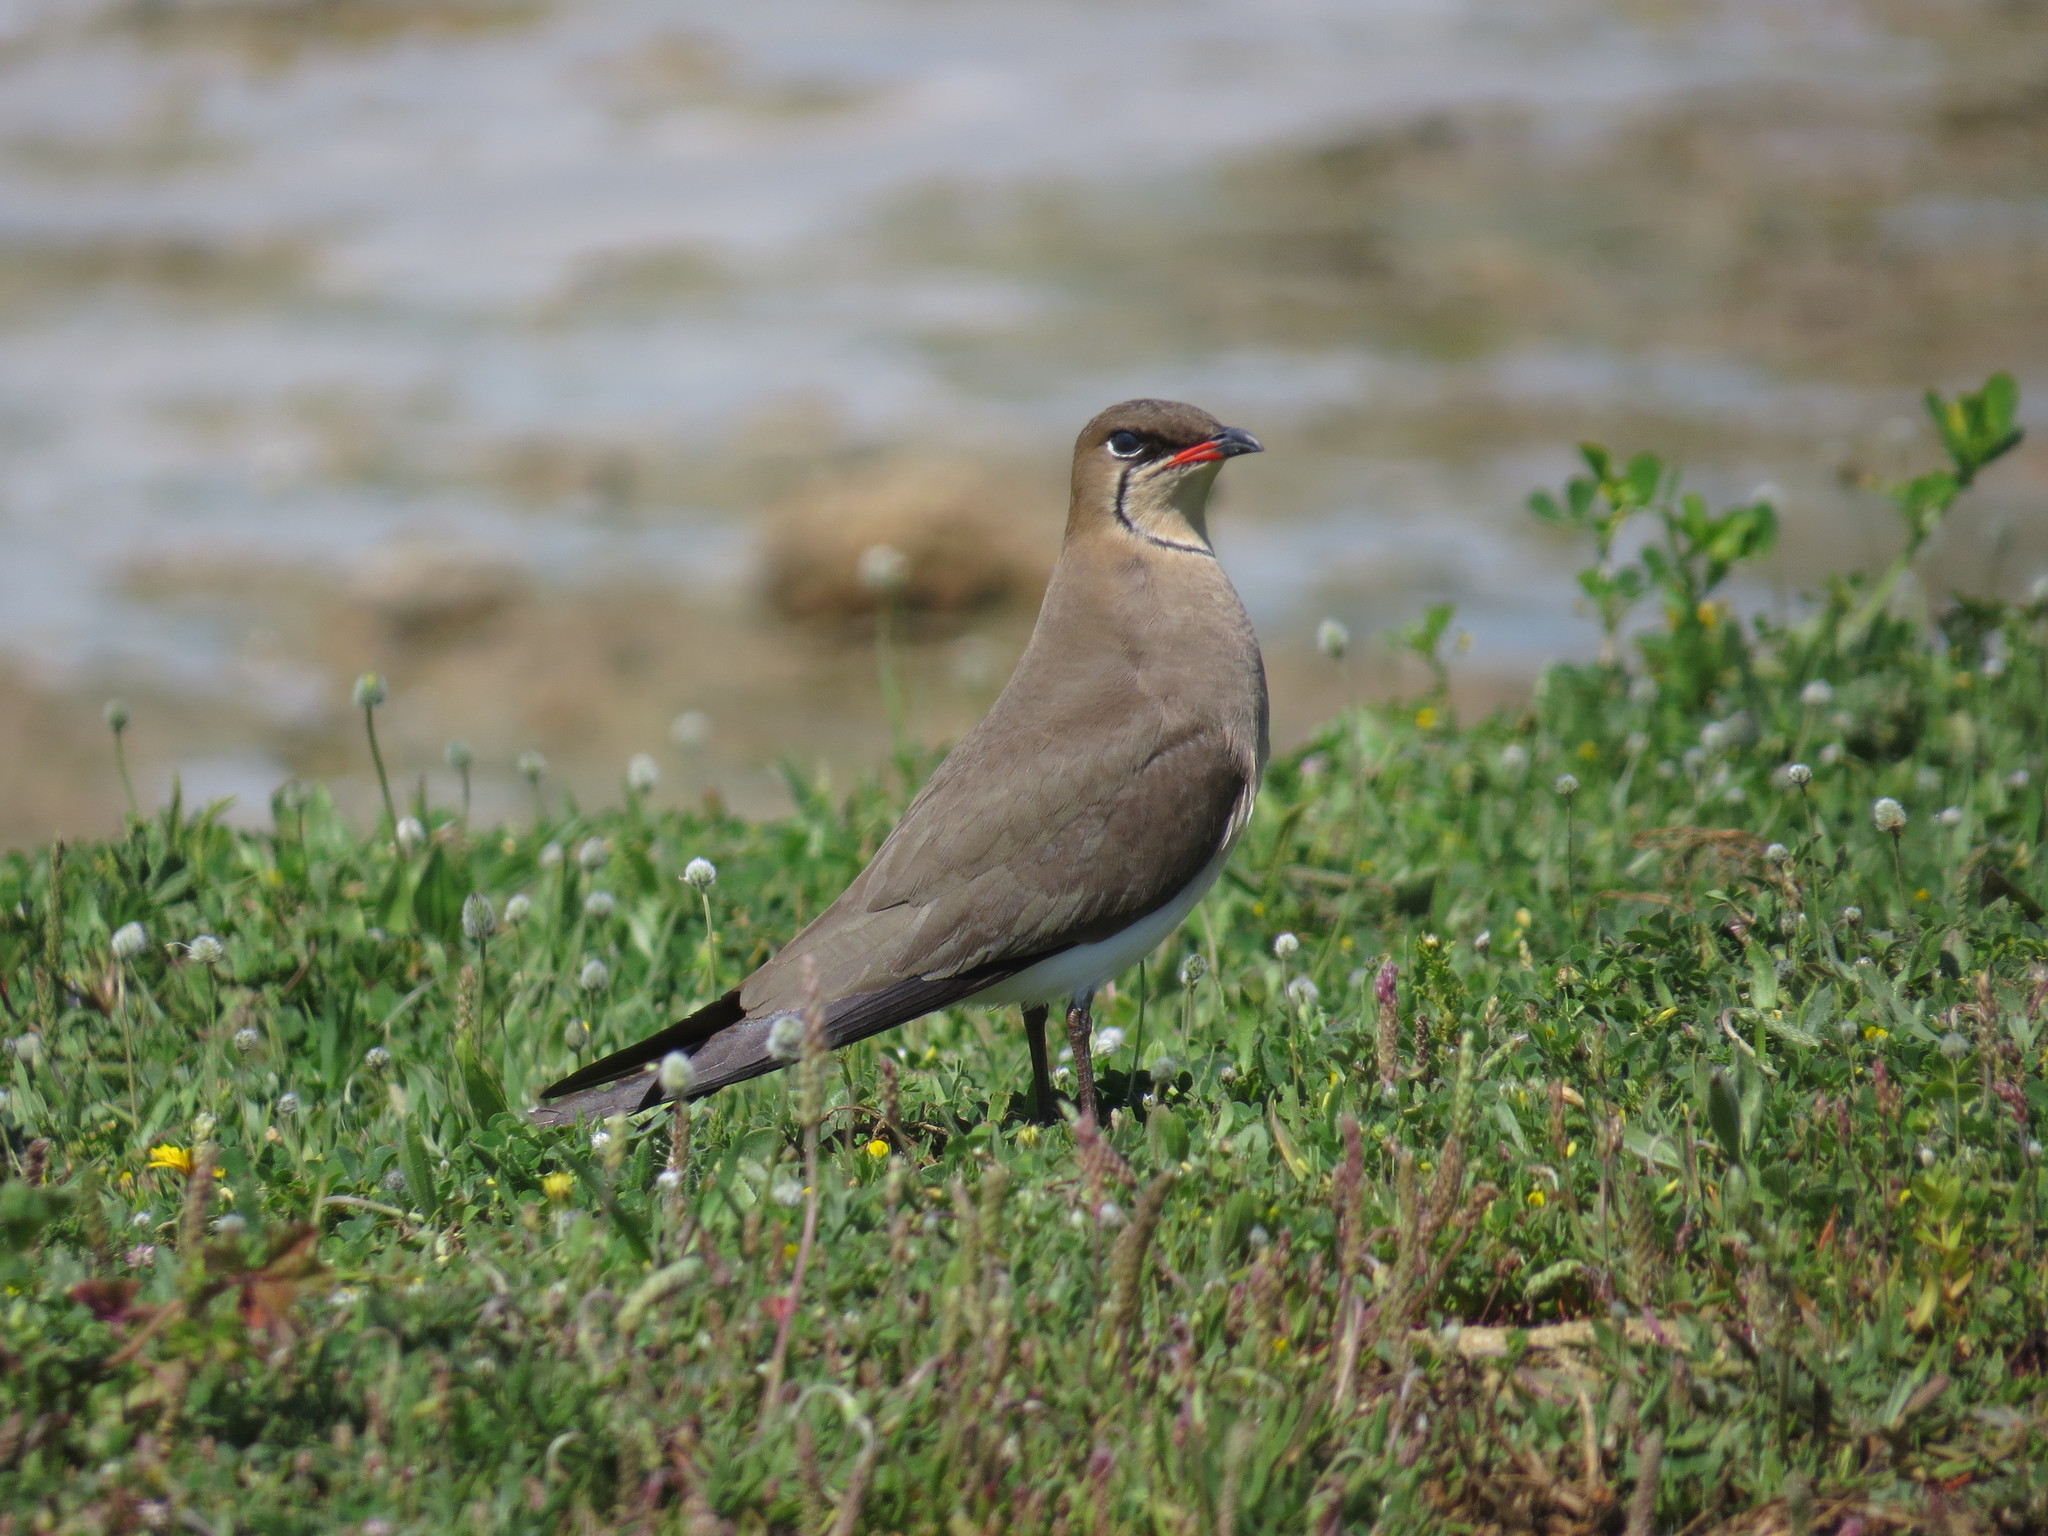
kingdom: Animalia
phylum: Chordata
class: Aves
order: Charadriiformes
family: Glareolidae
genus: Glareola
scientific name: Glareola pratincola
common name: Collared pratincole
